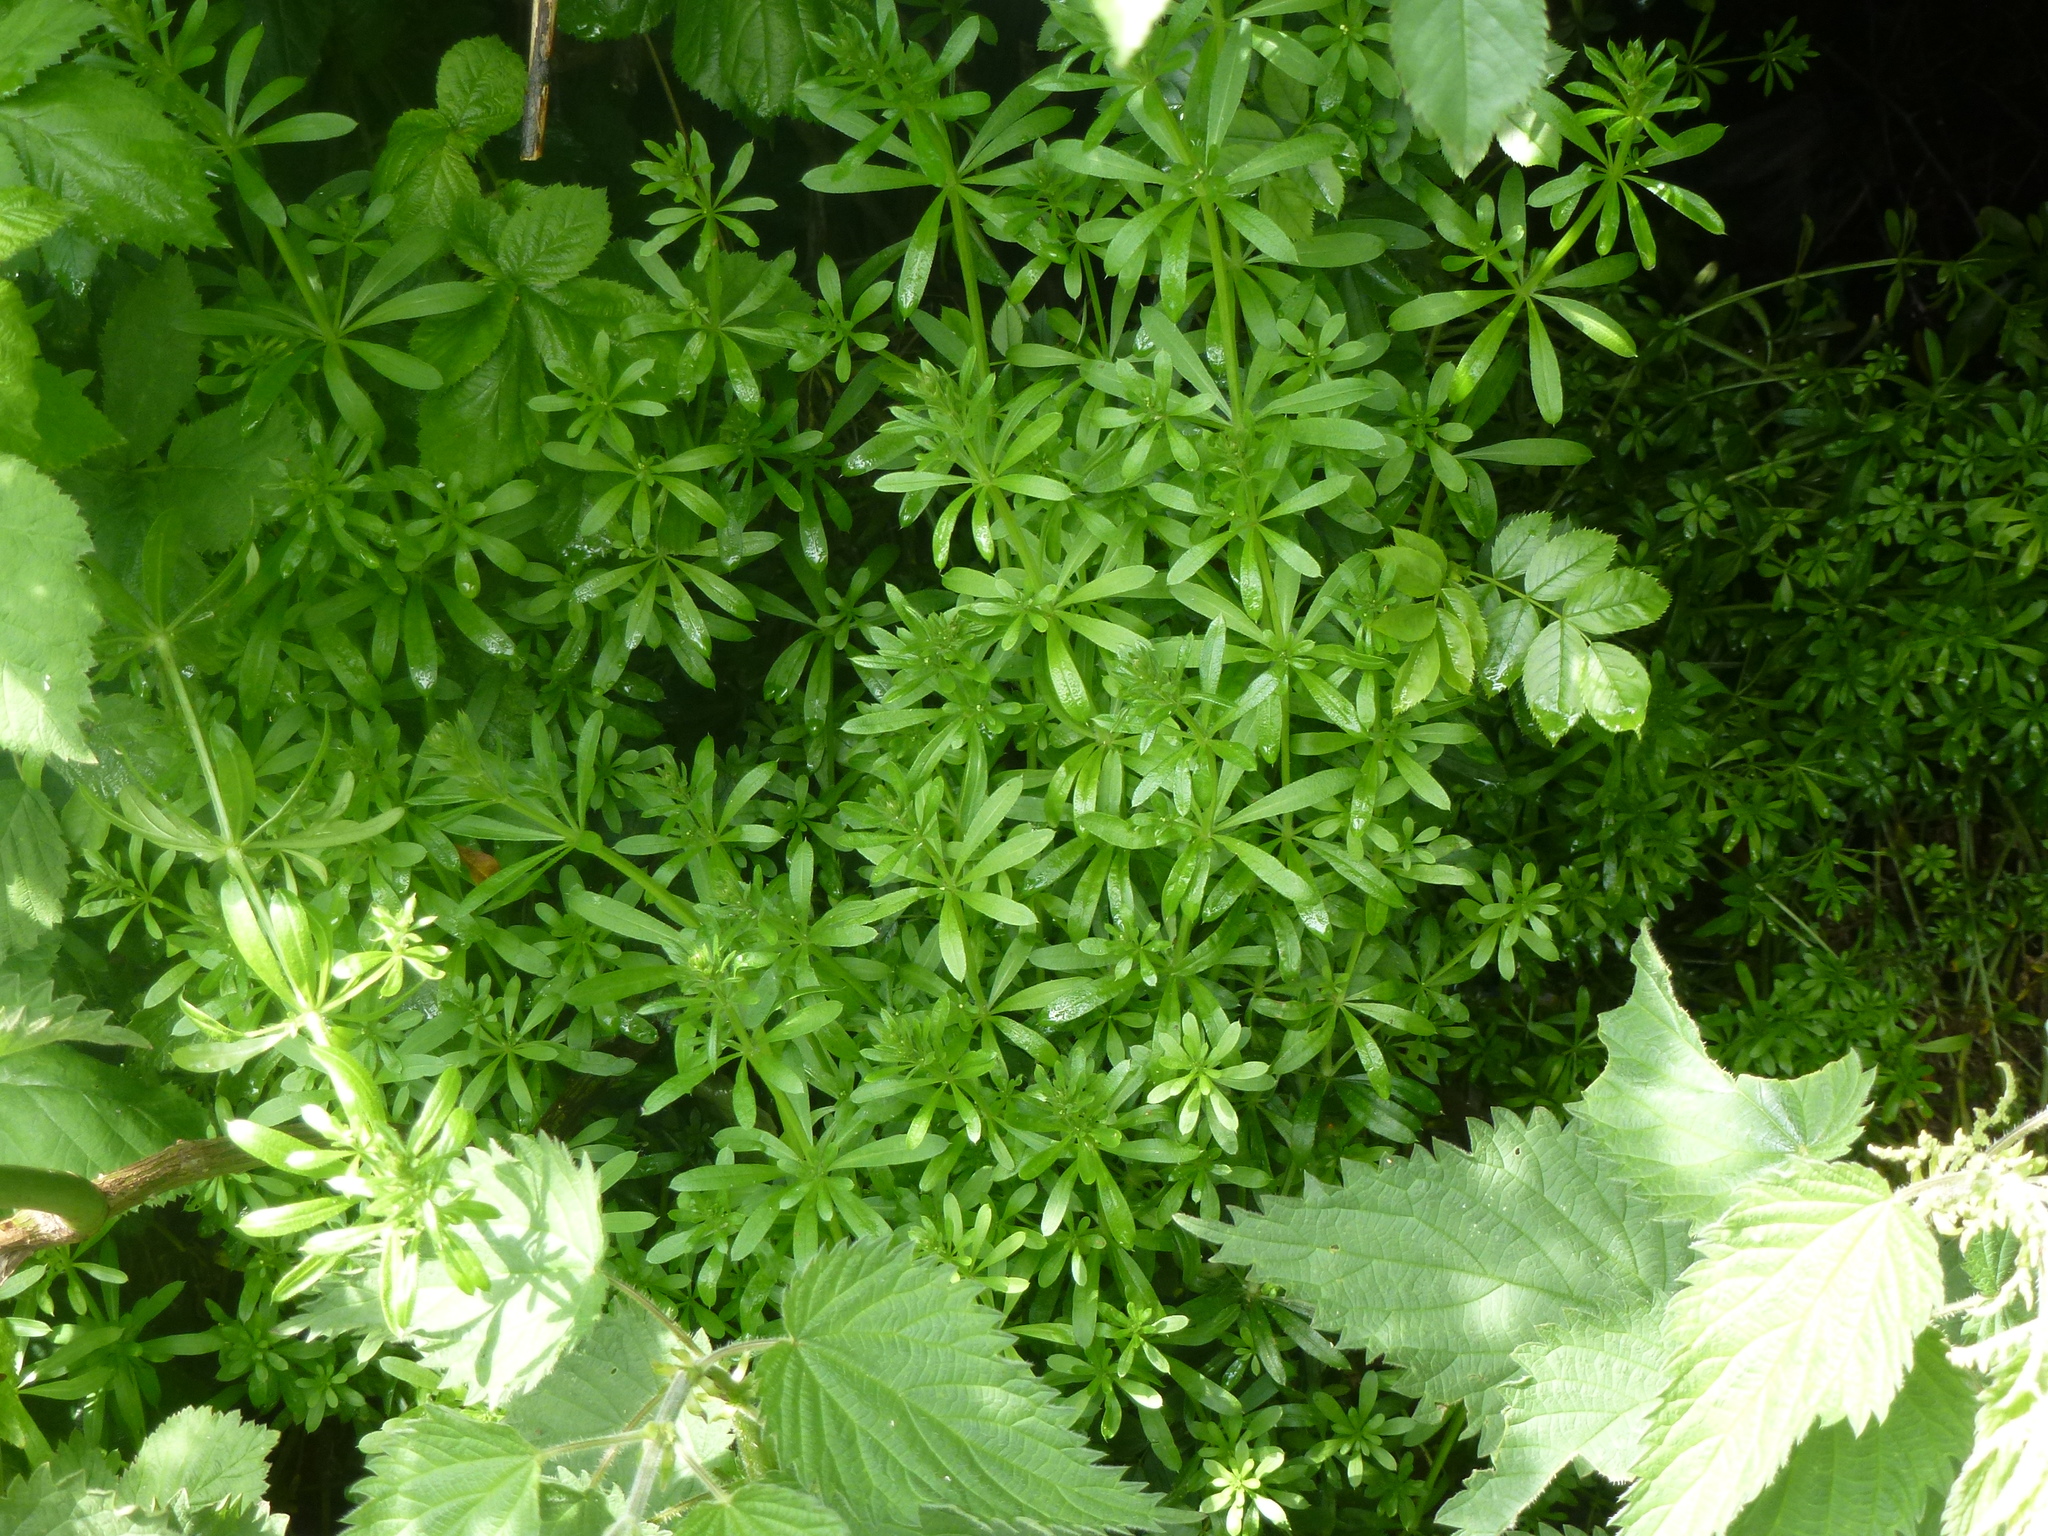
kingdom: Plantae
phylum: Tracheophyta
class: Magnoliopsida
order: Gentianales
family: Rubiaceae
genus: Galium
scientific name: Galium aparine
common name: Cleavers
